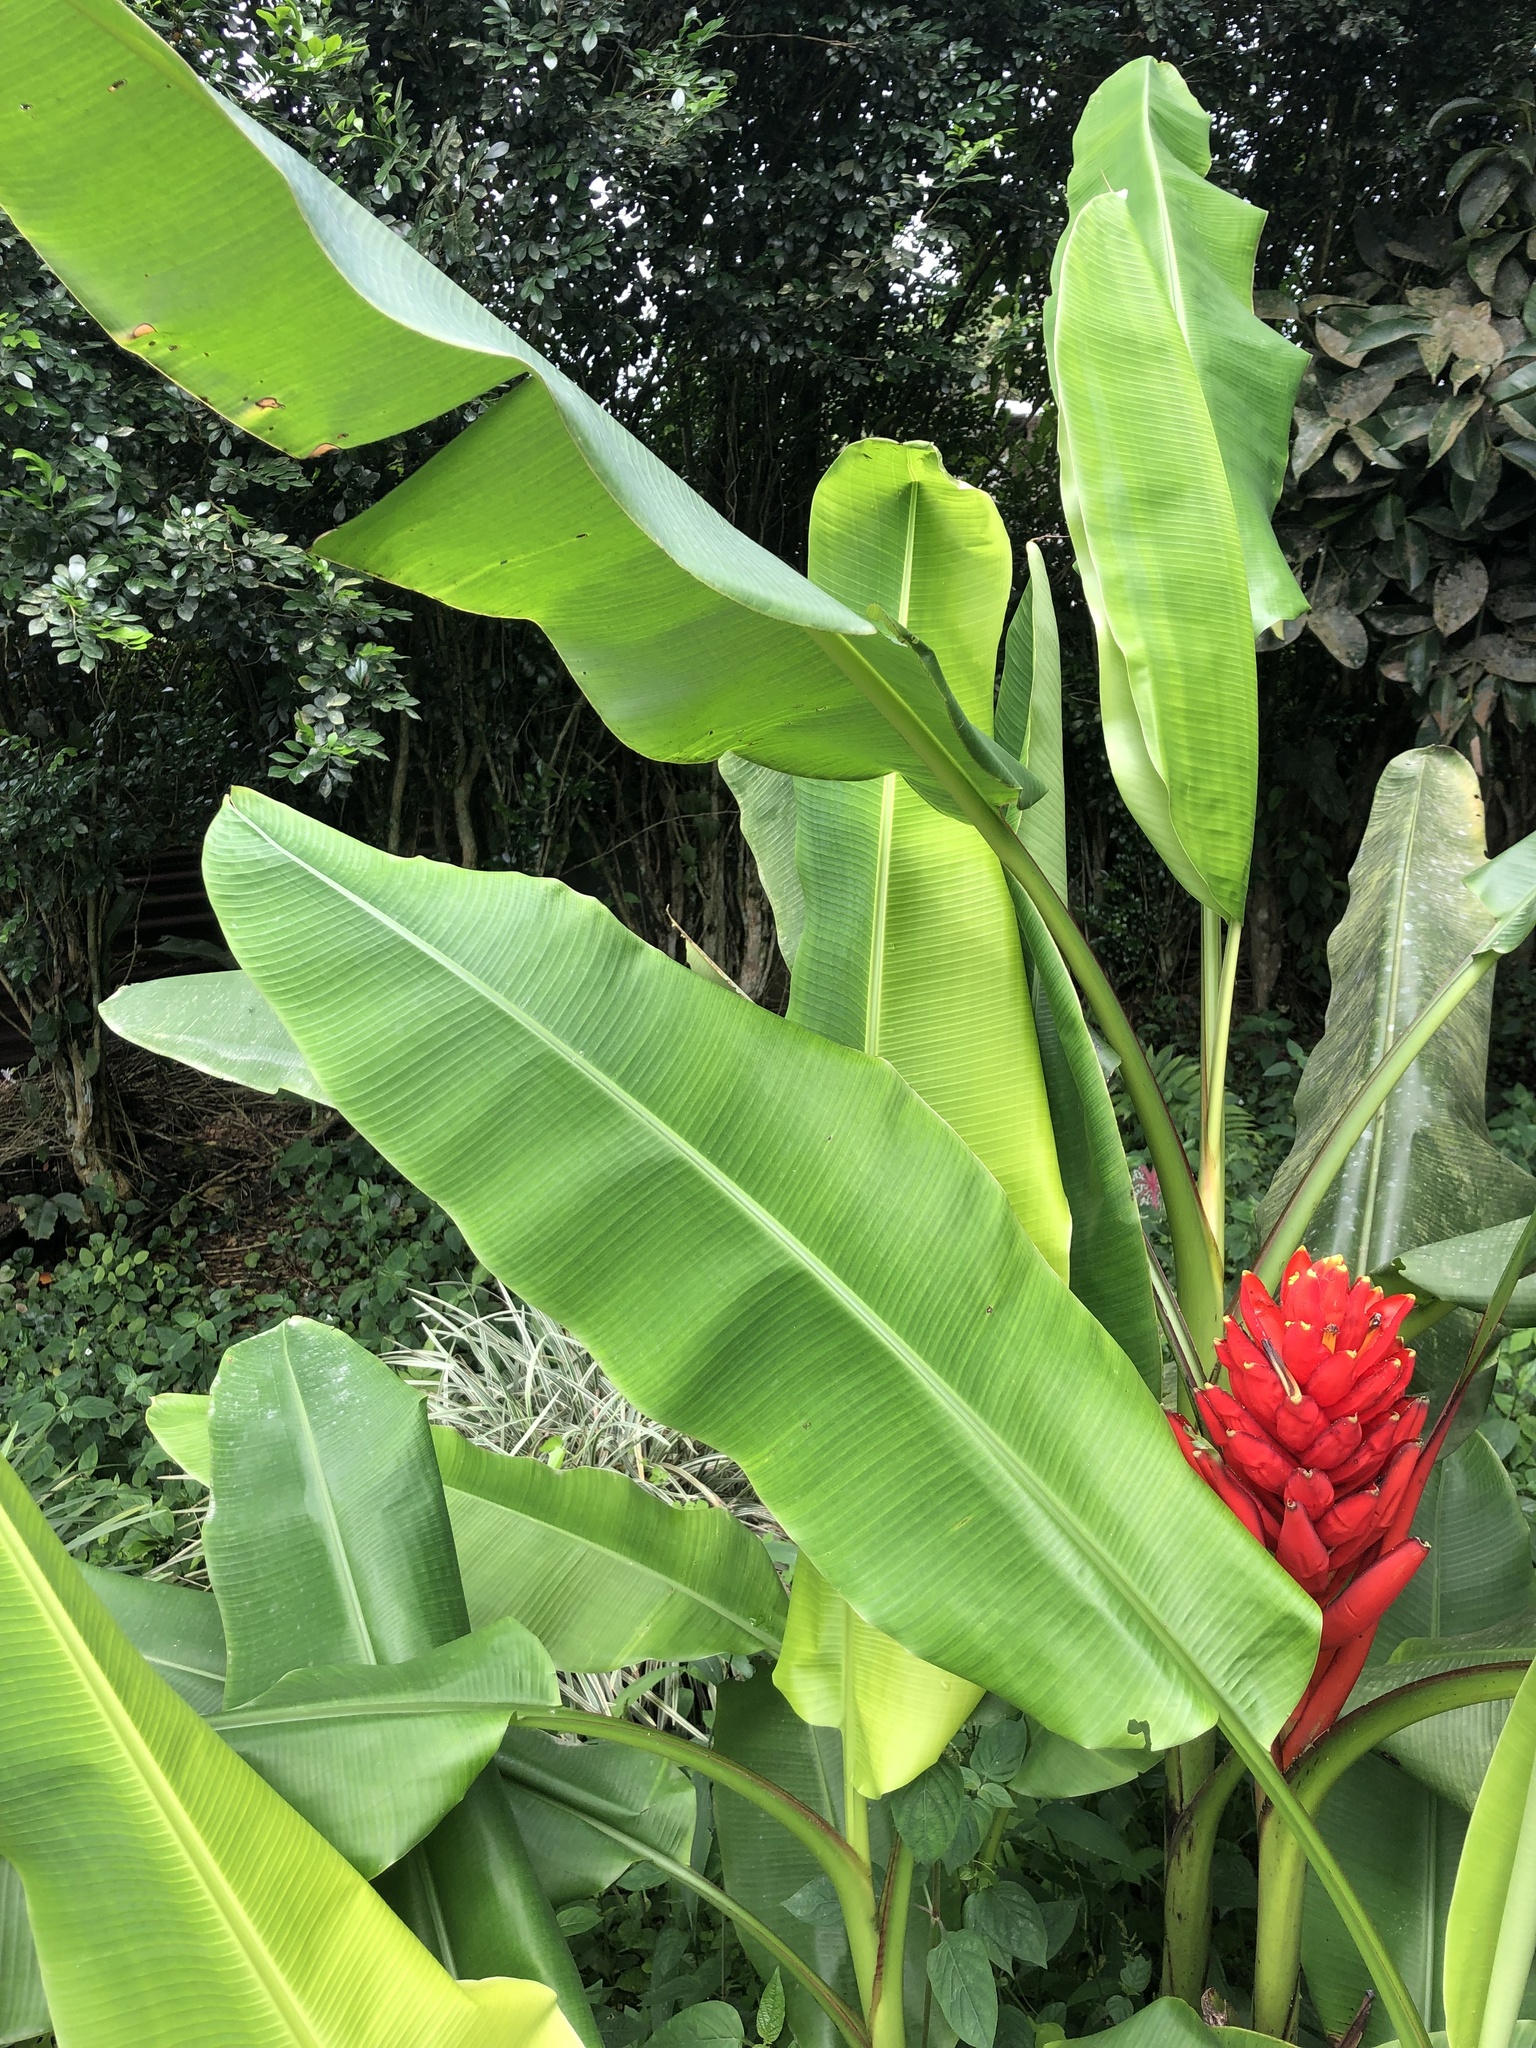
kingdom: Plantae
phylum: Tracheophyta
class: Liliopsida
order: Zingiberales
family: Musaceae
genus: Musa
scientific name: Musa coccinea
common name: Scarlet banana
